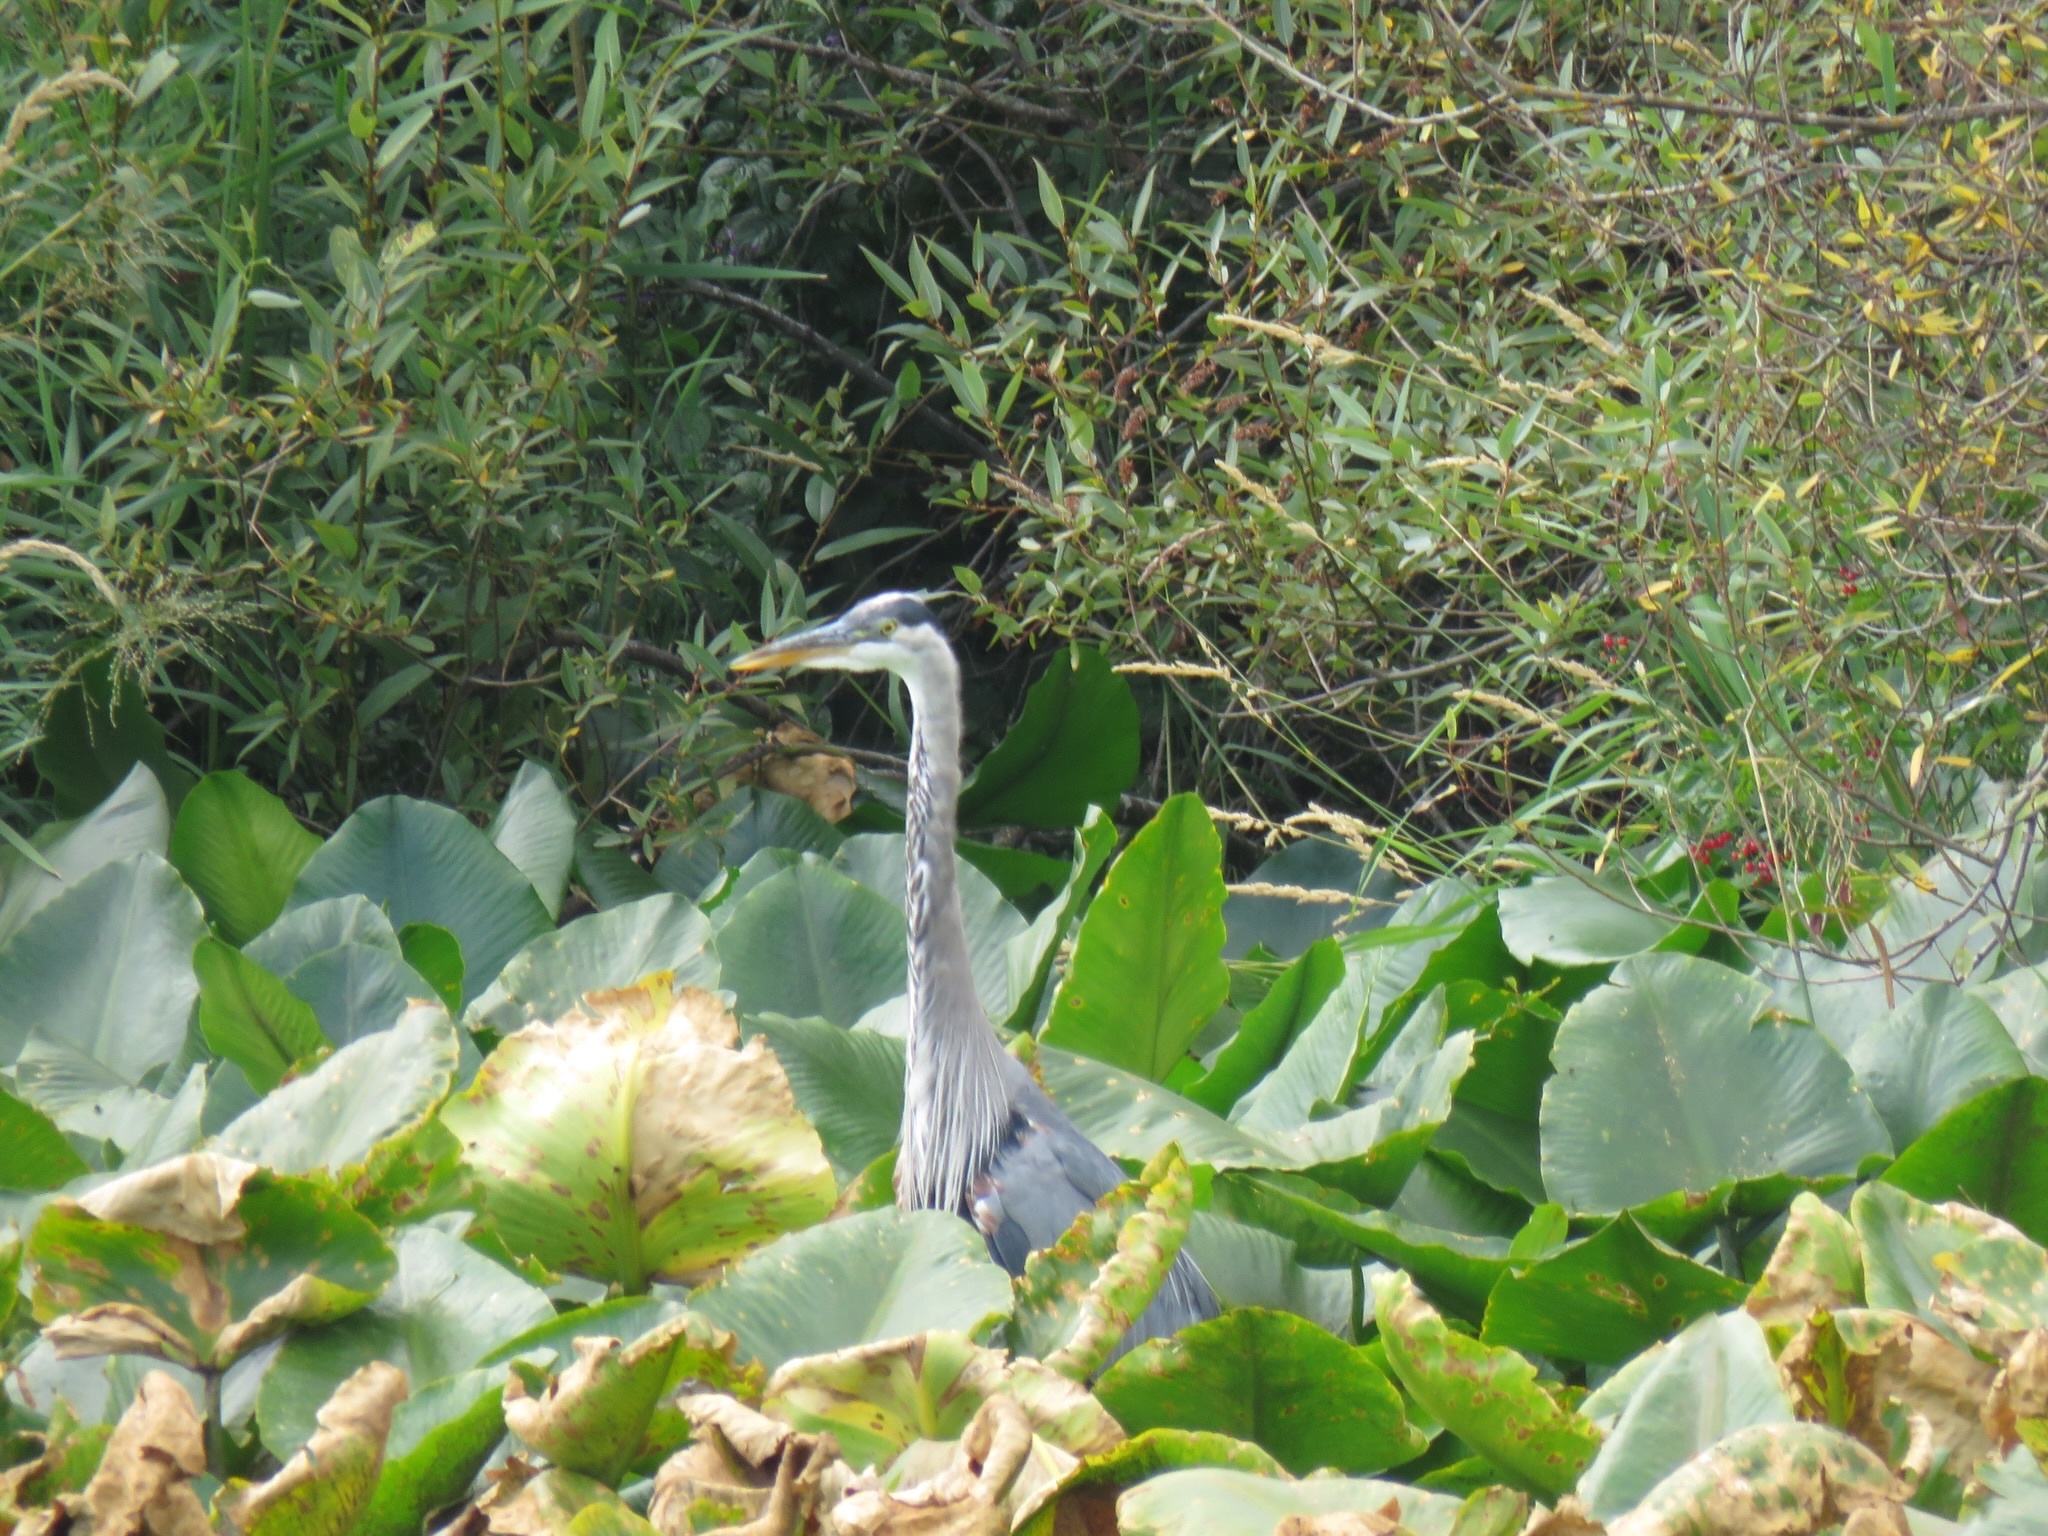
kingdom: Animalia
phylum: Chordata
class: Aves
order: Pelecaniformes
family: Ardeidae
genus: Ardea
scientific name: Ardea herodias
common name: Great blue heron
